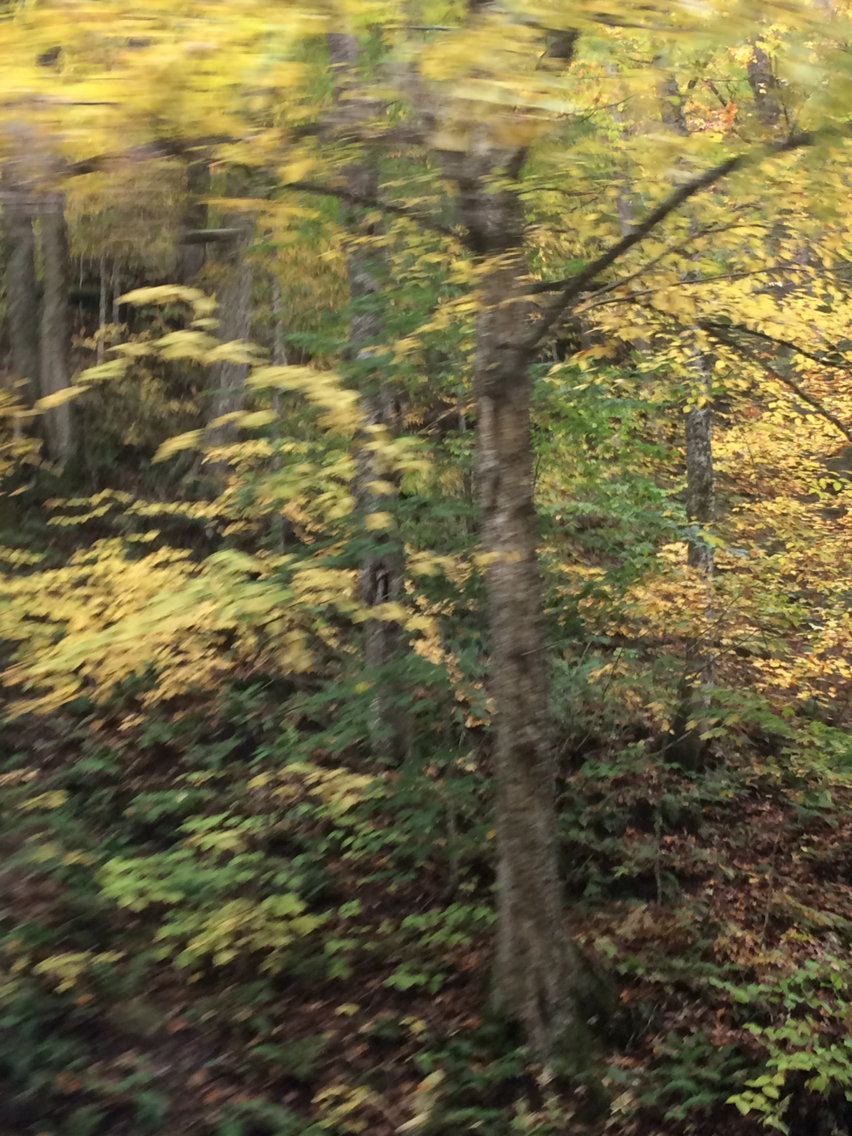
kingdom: Plantae
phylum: Tracheophyta
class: Magnoliopsida
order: Fagales
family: Betulaceae
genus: Betula
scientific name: Betula alleghaniensis
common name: Yellow birch
